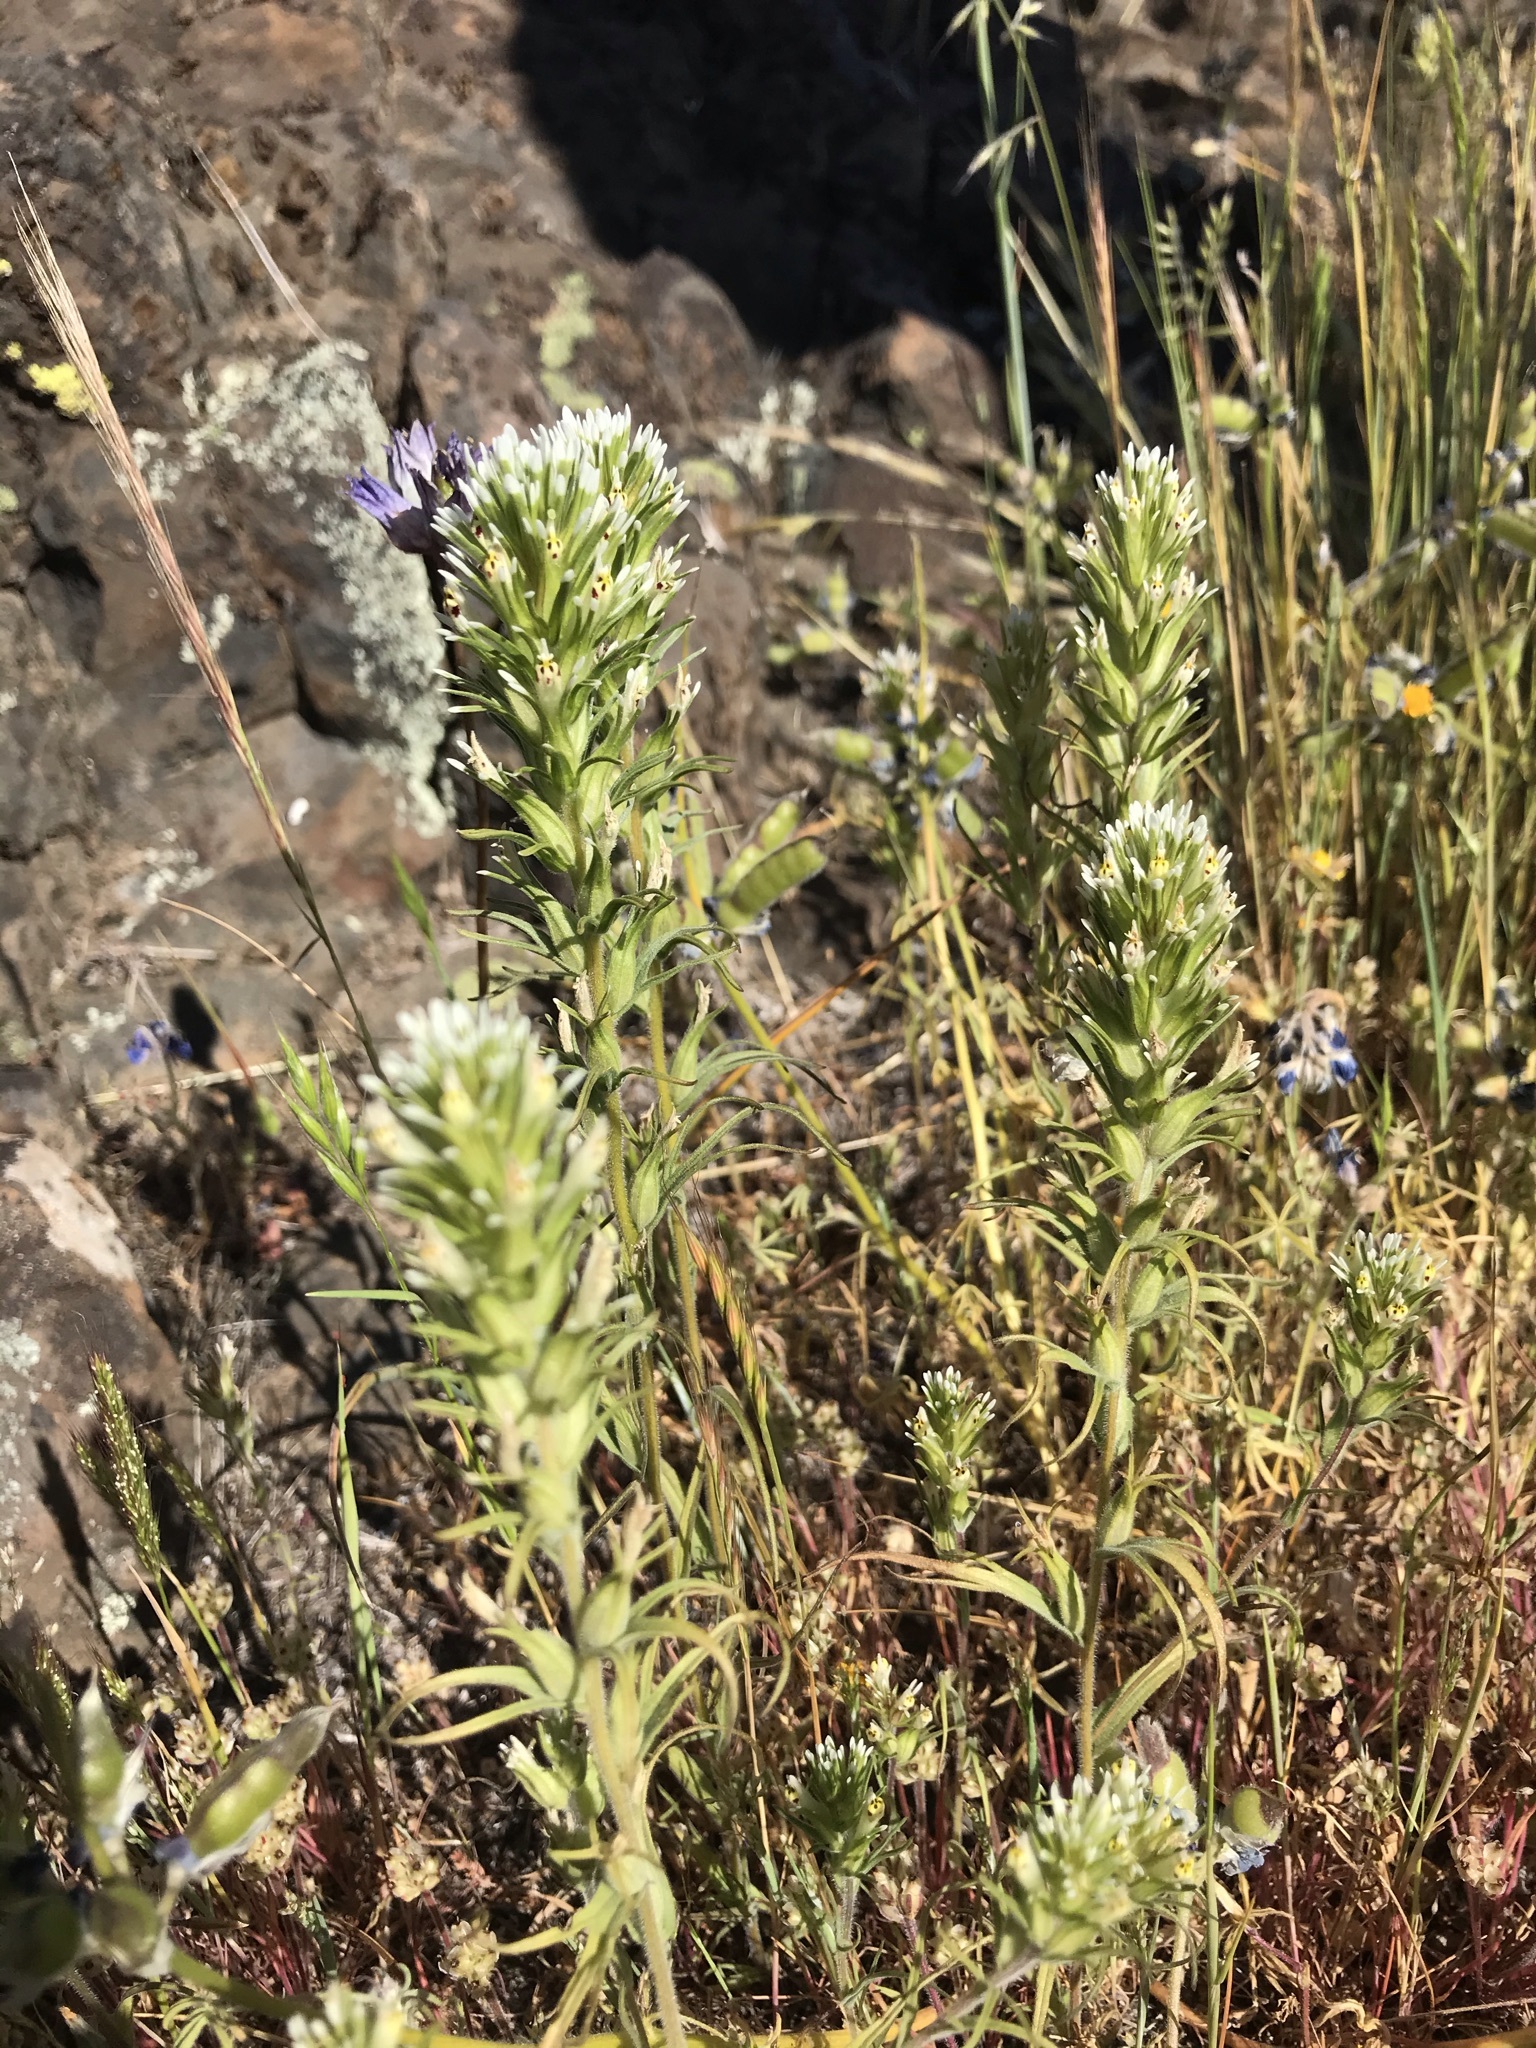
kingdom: Plantae
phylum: Tracheophyta
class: Magnoliopsida
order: Lamiales
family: Orobanchaceae
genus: Castilleja
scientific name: Castilleja attenuata
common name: Valley tassels
